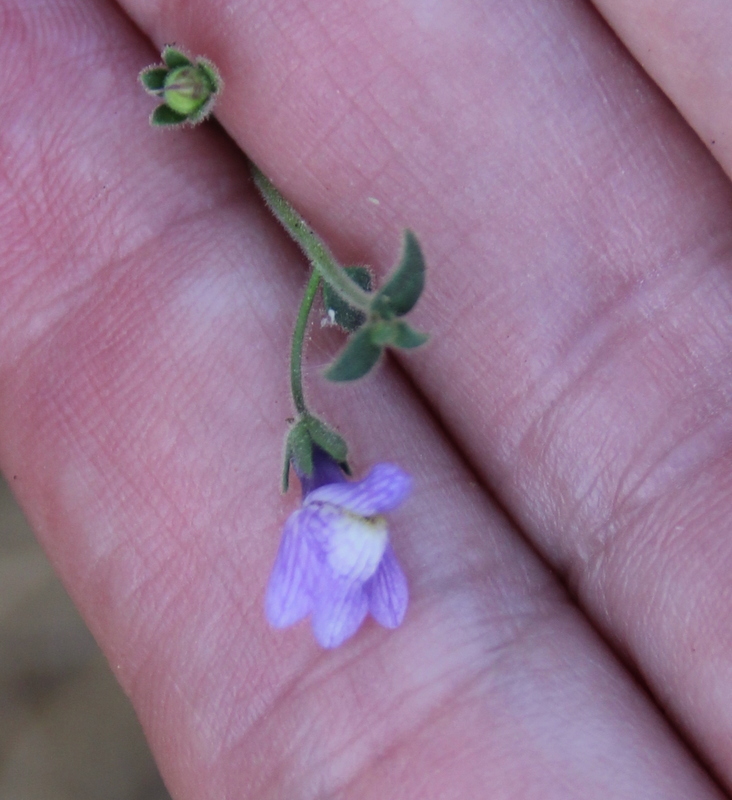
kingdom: Plantae
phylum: Tracheophyta
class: Magnoliopsida
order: Lamiales
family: Plantaginaceae
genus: Sairocarpus
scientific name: Sairocarpus nuttallianus
